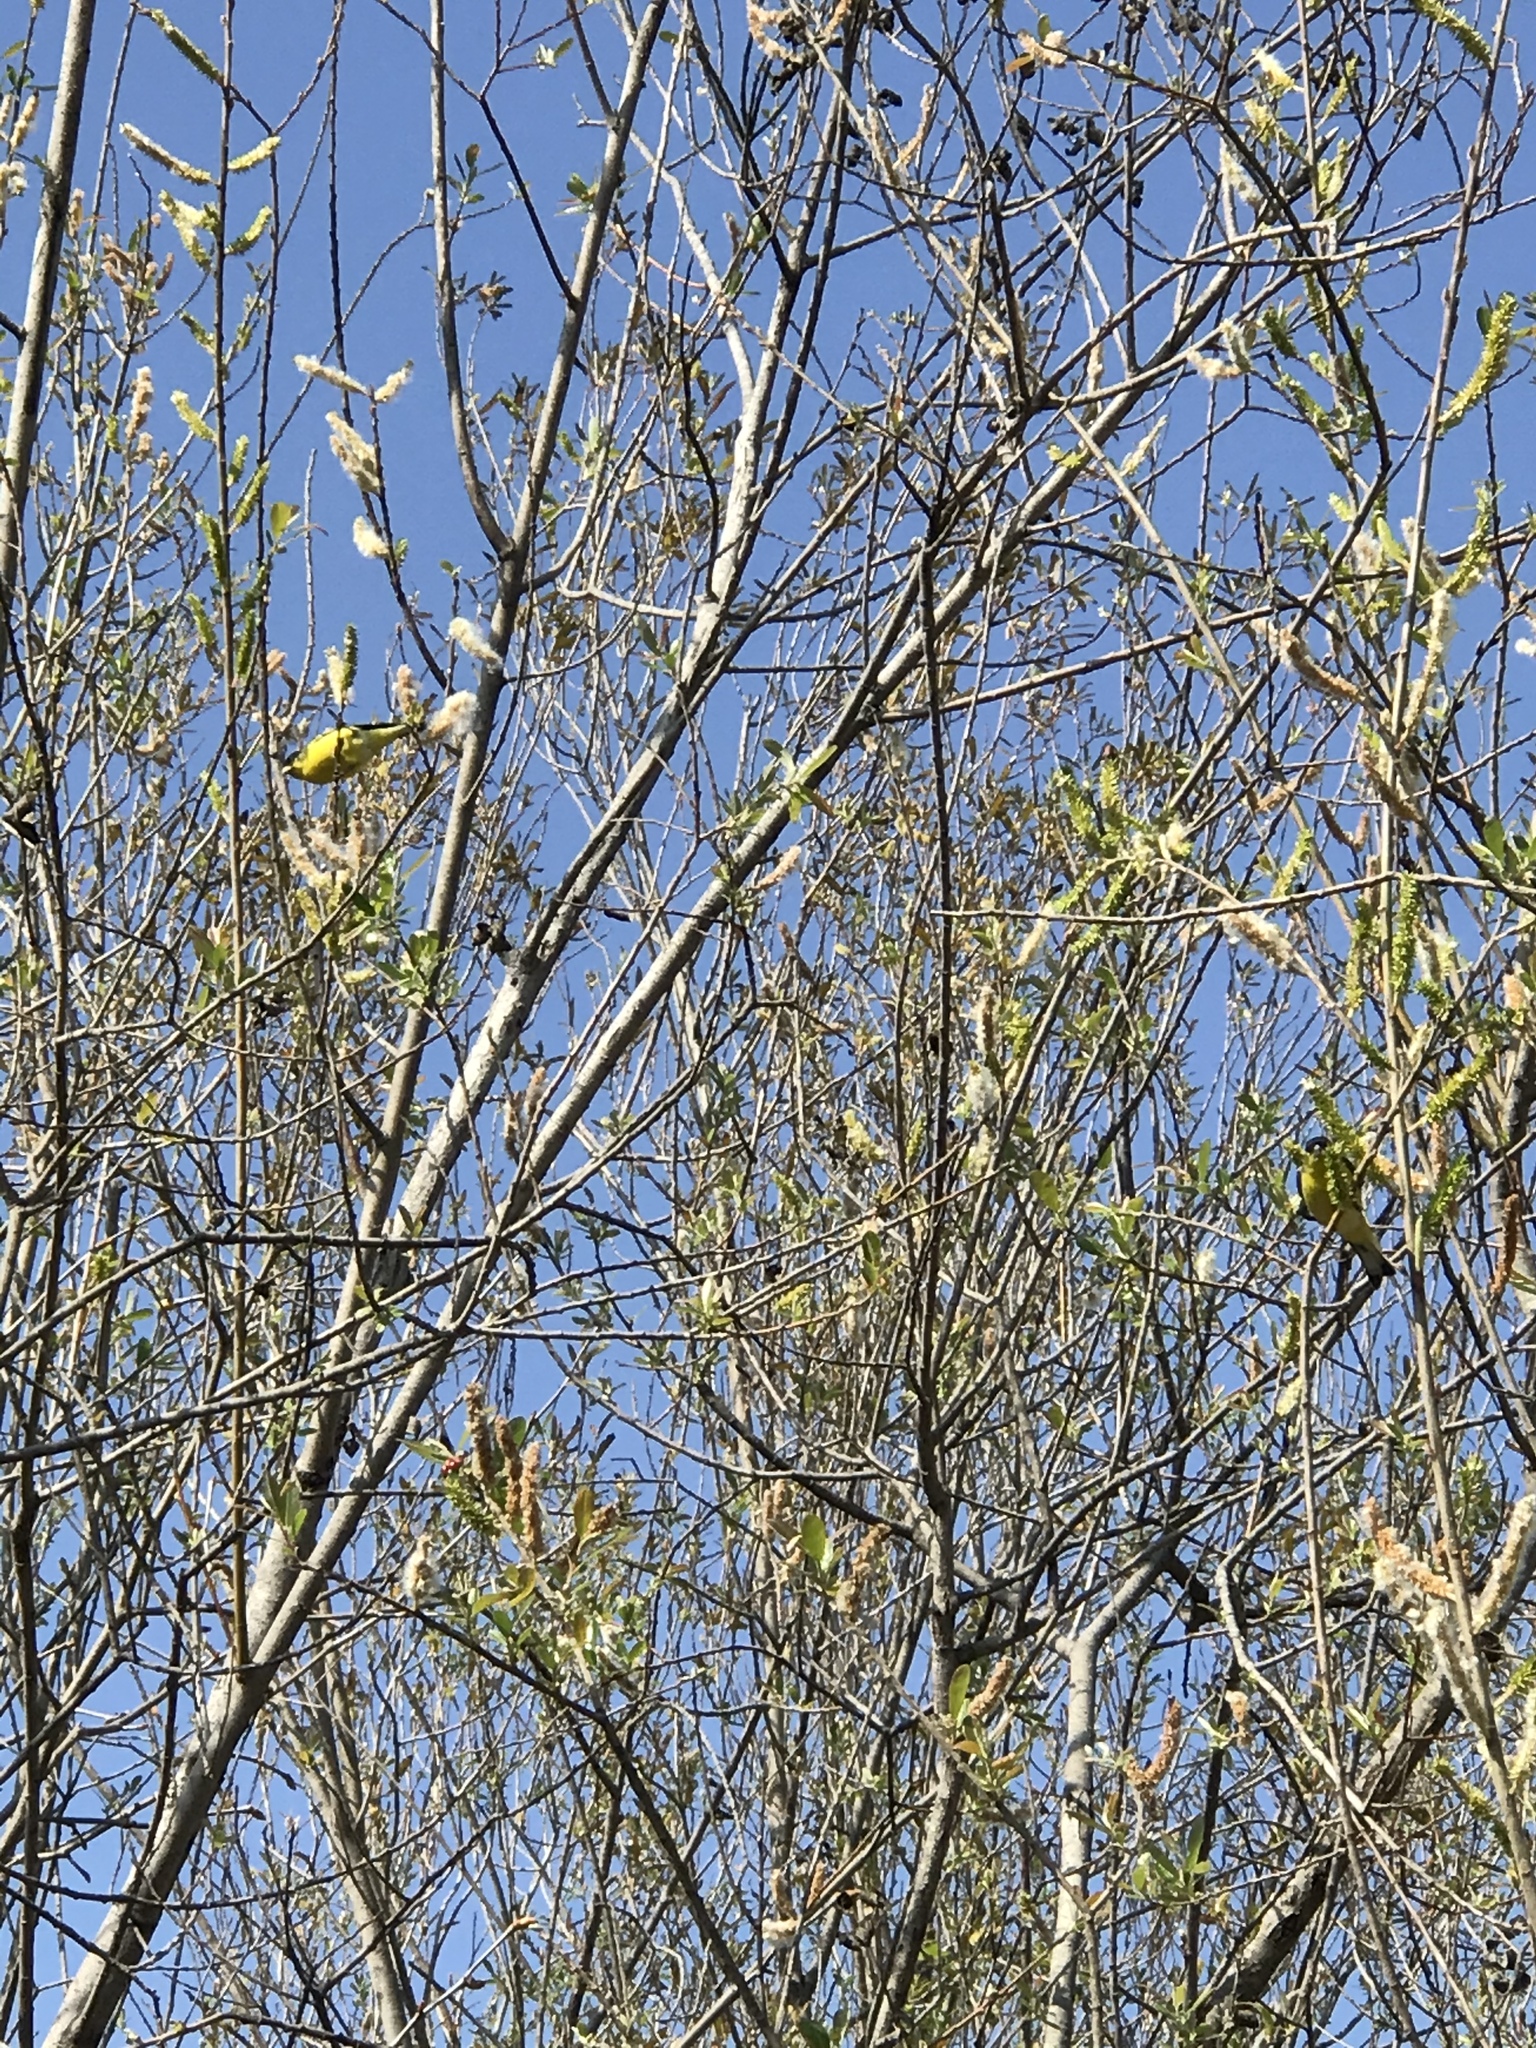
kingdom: Animalia
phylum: Chordata
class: Aves
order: Passeriformes
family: Fringillidae
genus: Spinus
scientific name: Spinus psaltria
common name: Lesser goldfinch
